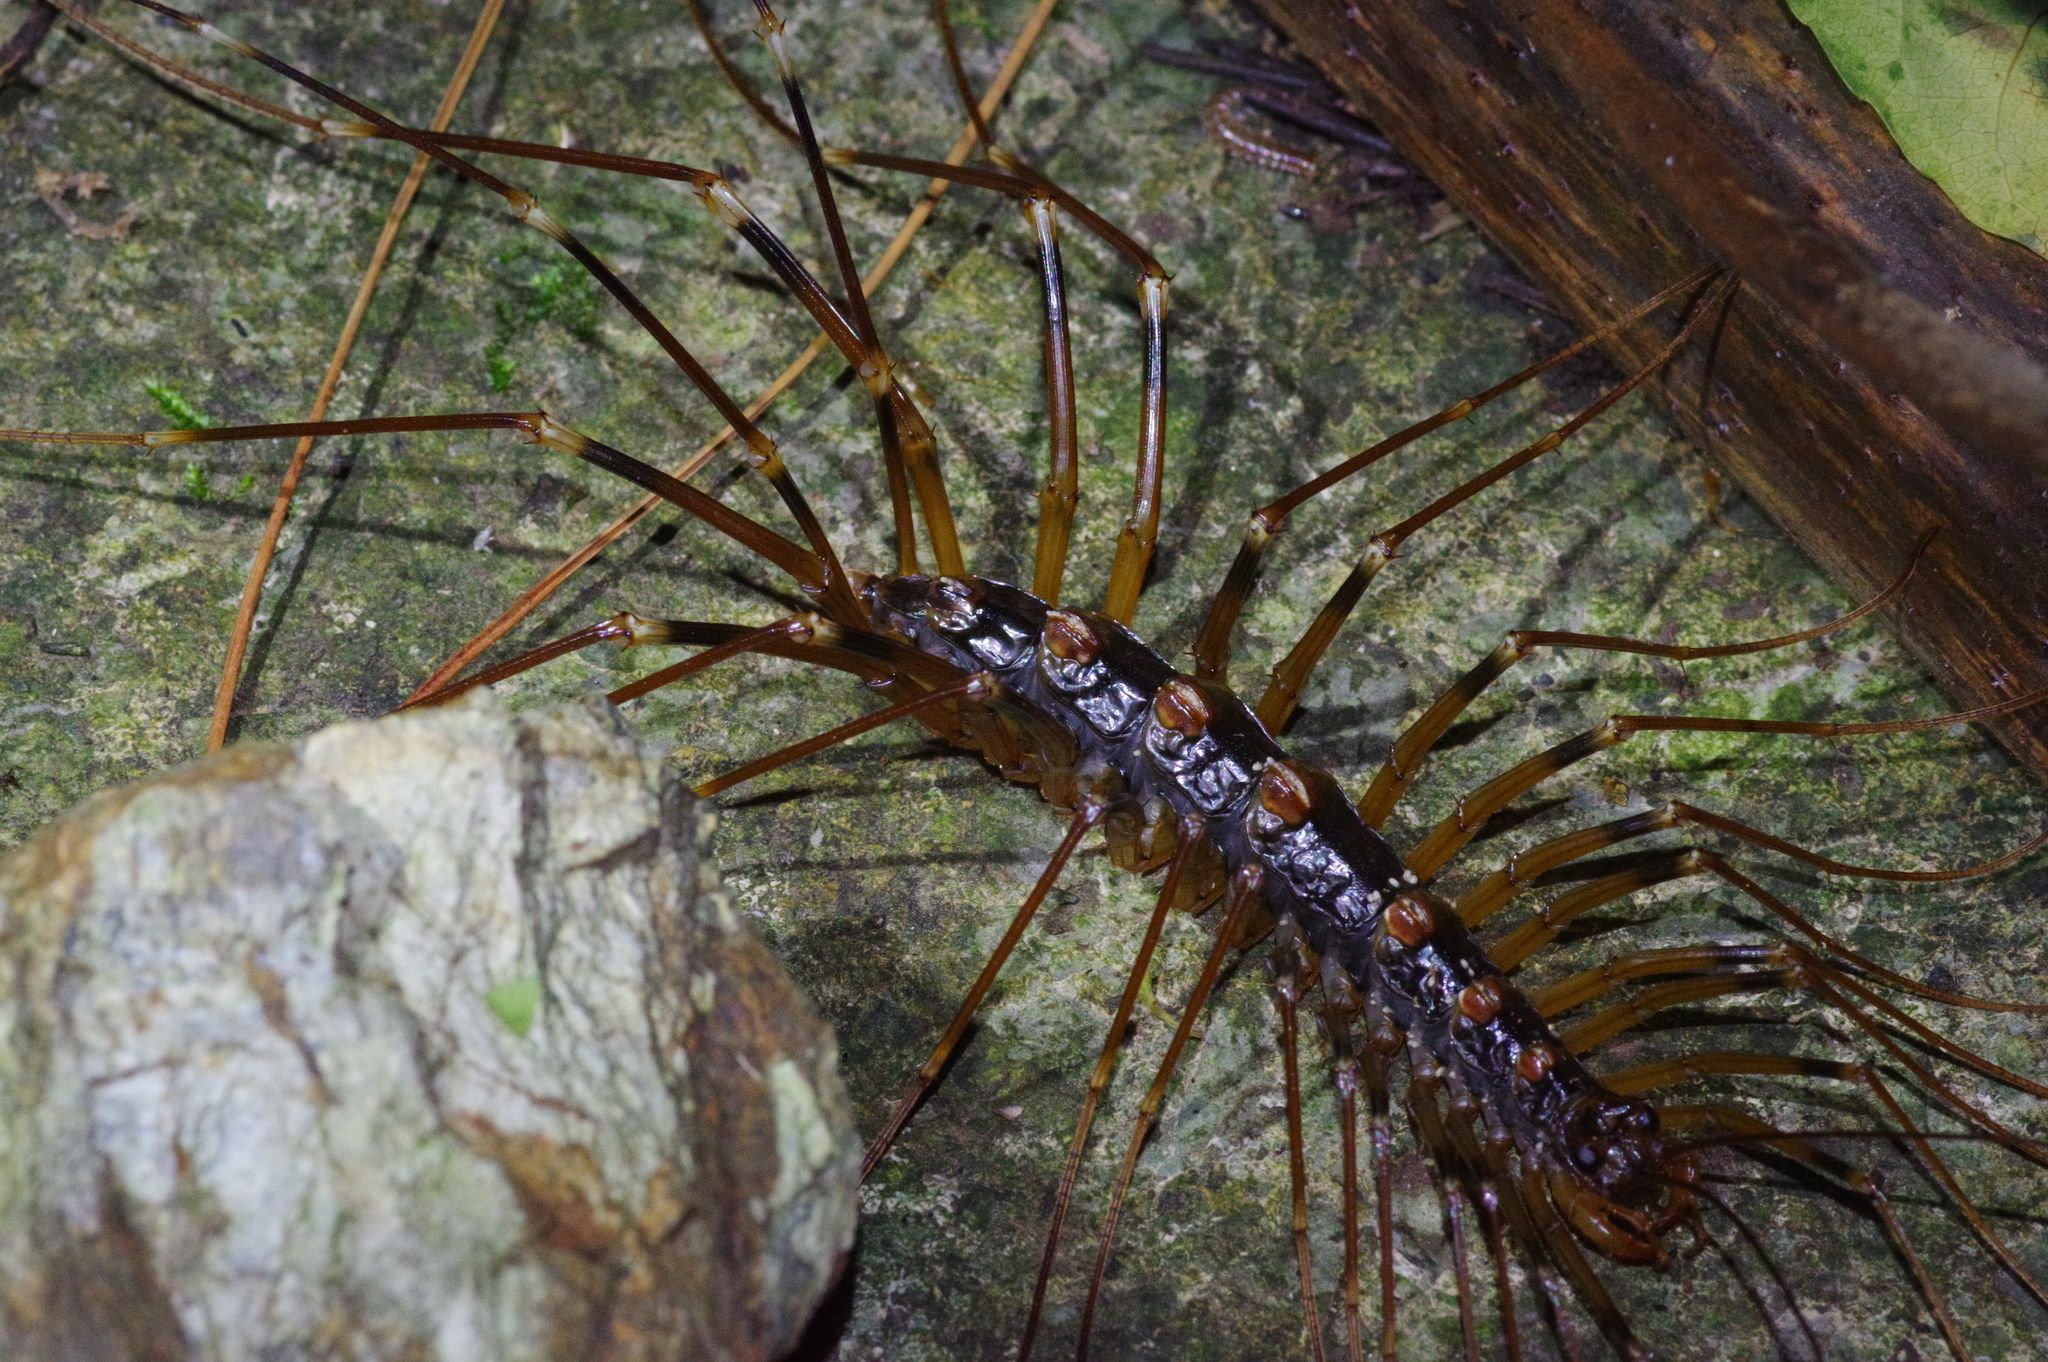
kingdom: Animalia
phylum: Arthropoda
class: Chilopoda
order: Scutigeromorpha
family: Scutigeridae
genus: Thereuopoda
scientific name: Thereuopoda clunifera
